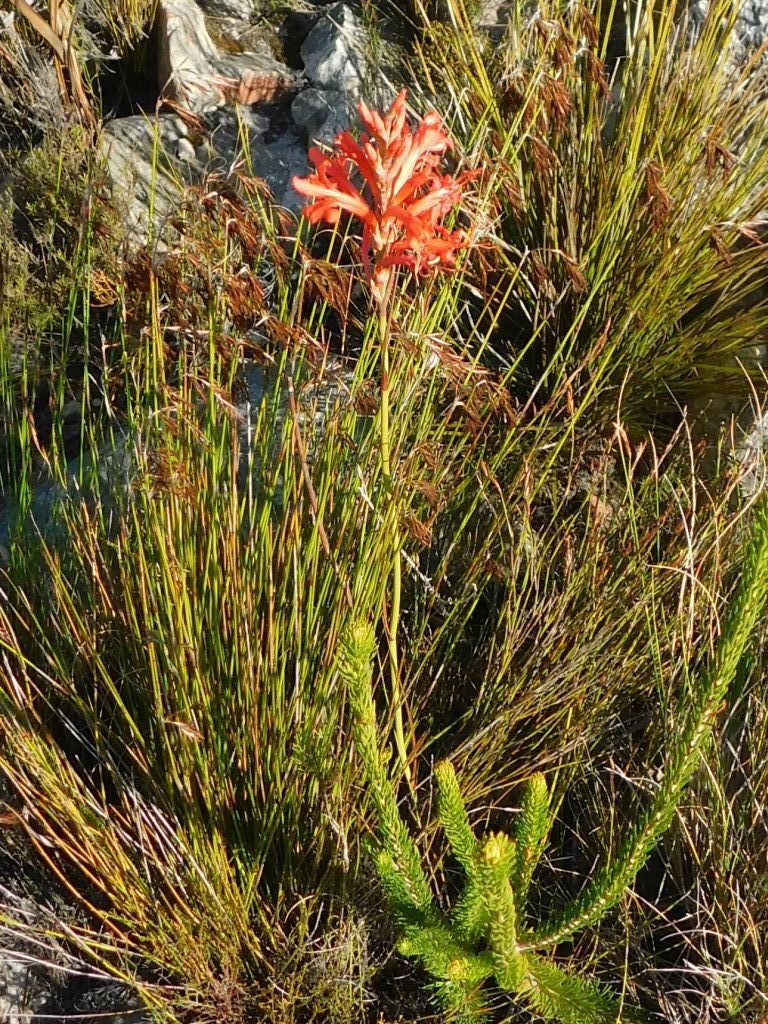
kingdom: Plantae
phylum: Tracheophyta
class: Liliopsida
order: Asparagales
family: Iridaceae
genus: Tritoniopsis
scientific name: Tritoniopsis triticea
